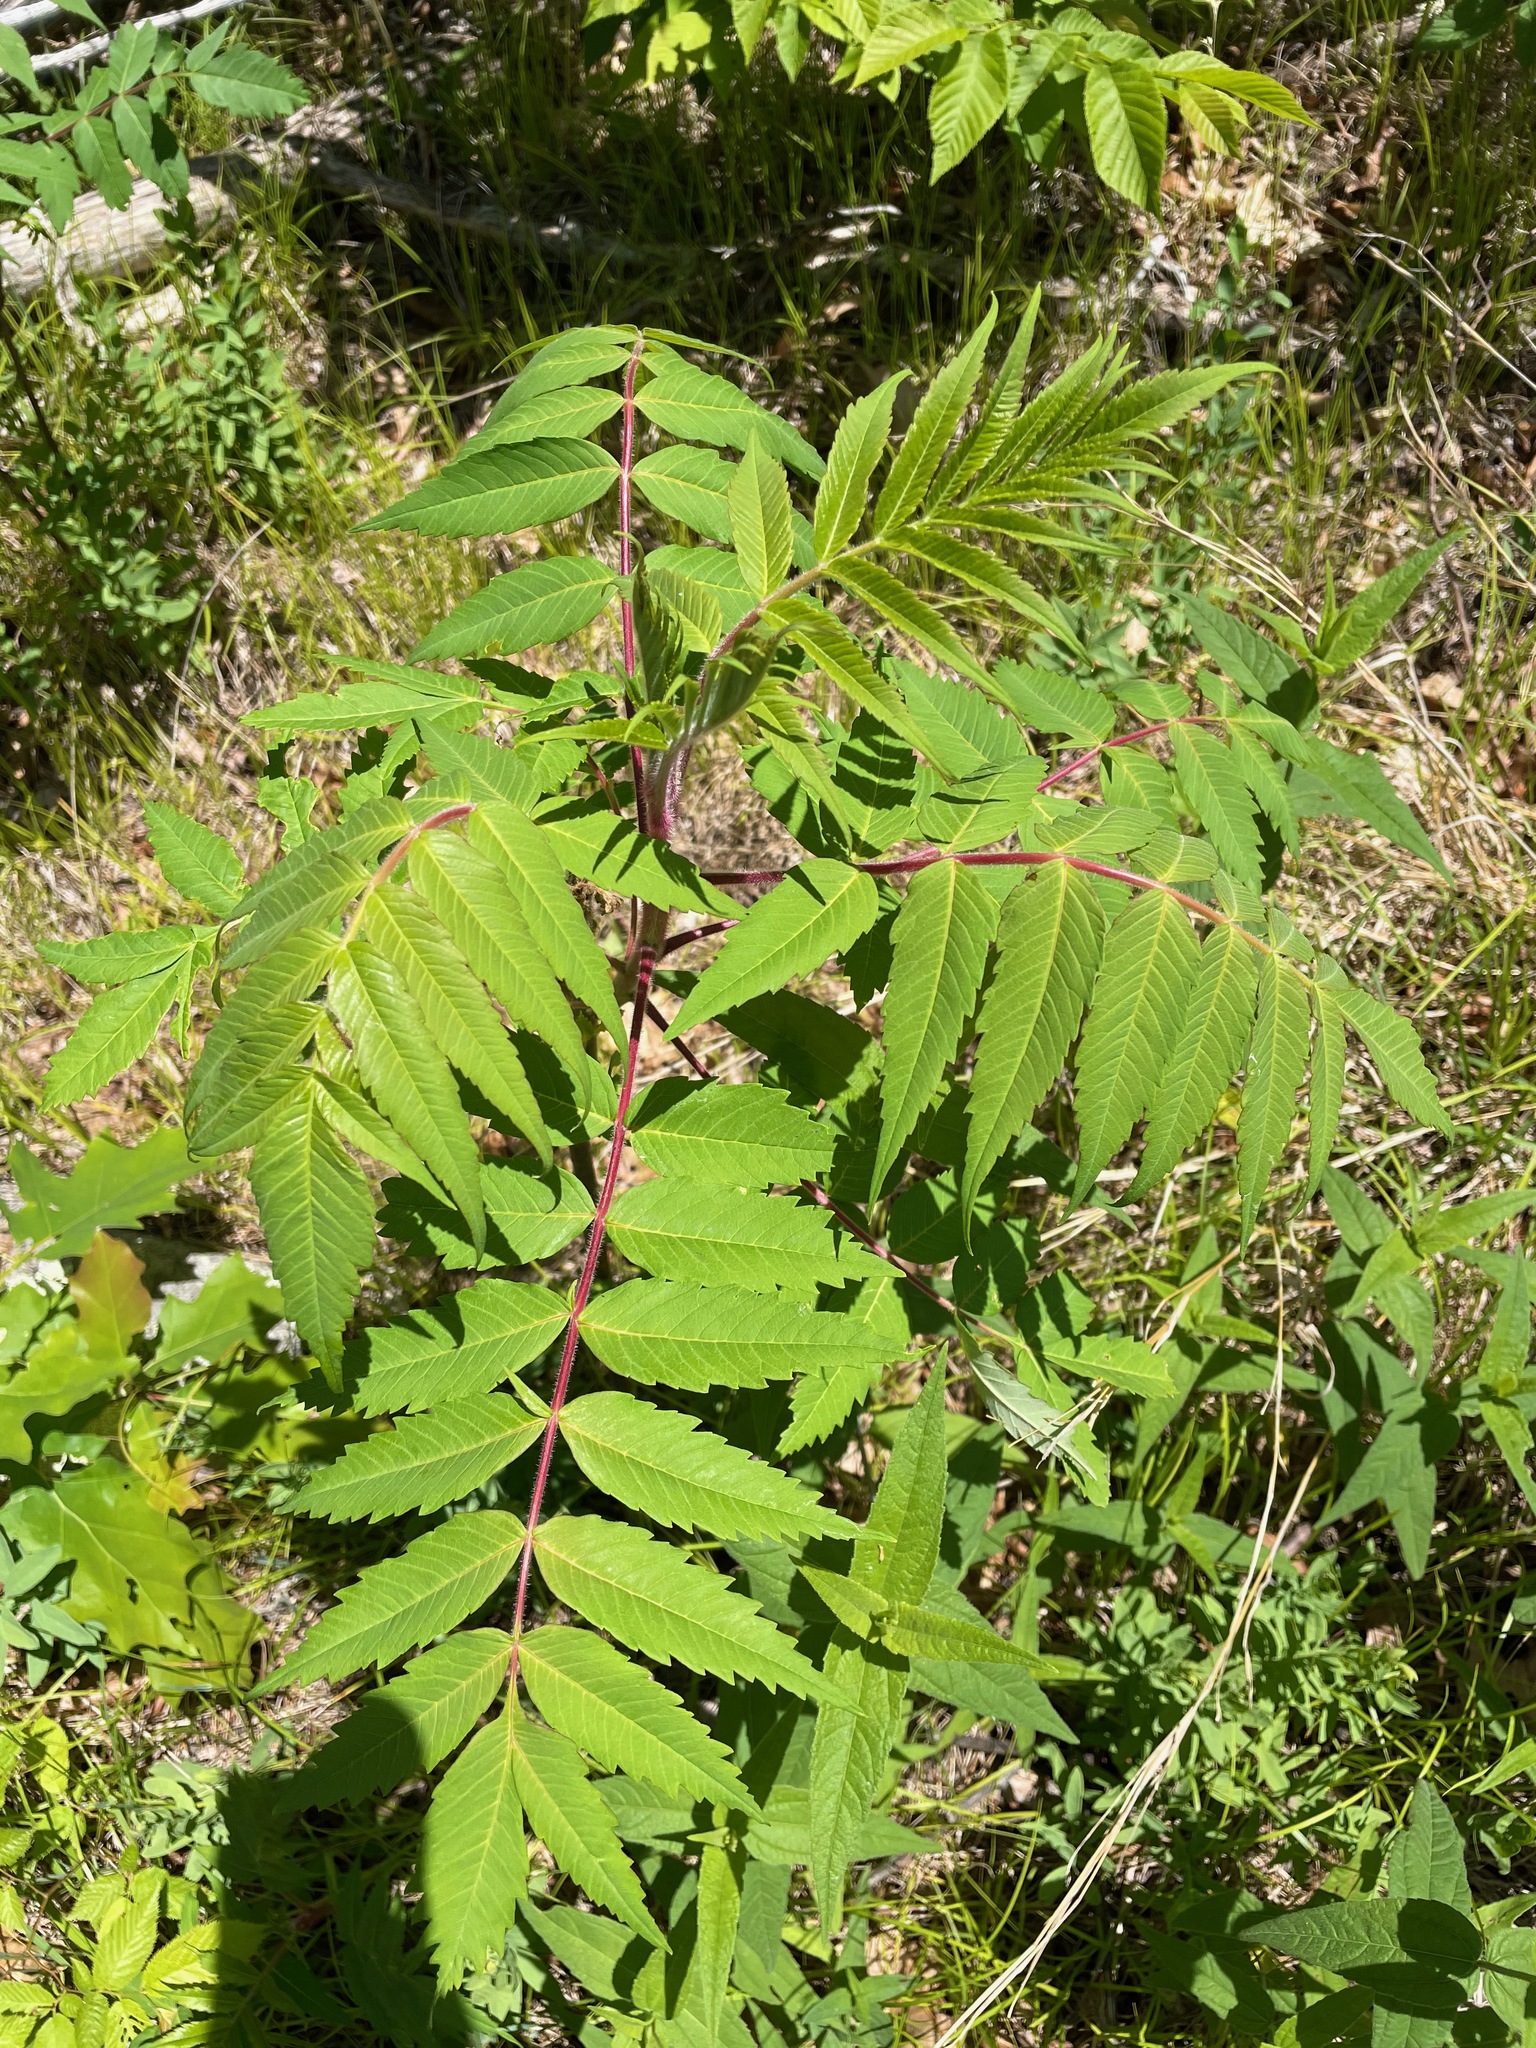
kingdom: Plantae
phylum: Tracheophyta
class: Magnoliopsida
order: Sapindales
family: Anacardiaceae
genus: Rhus
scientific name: Rhus typhina
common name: Staghorn sumac
